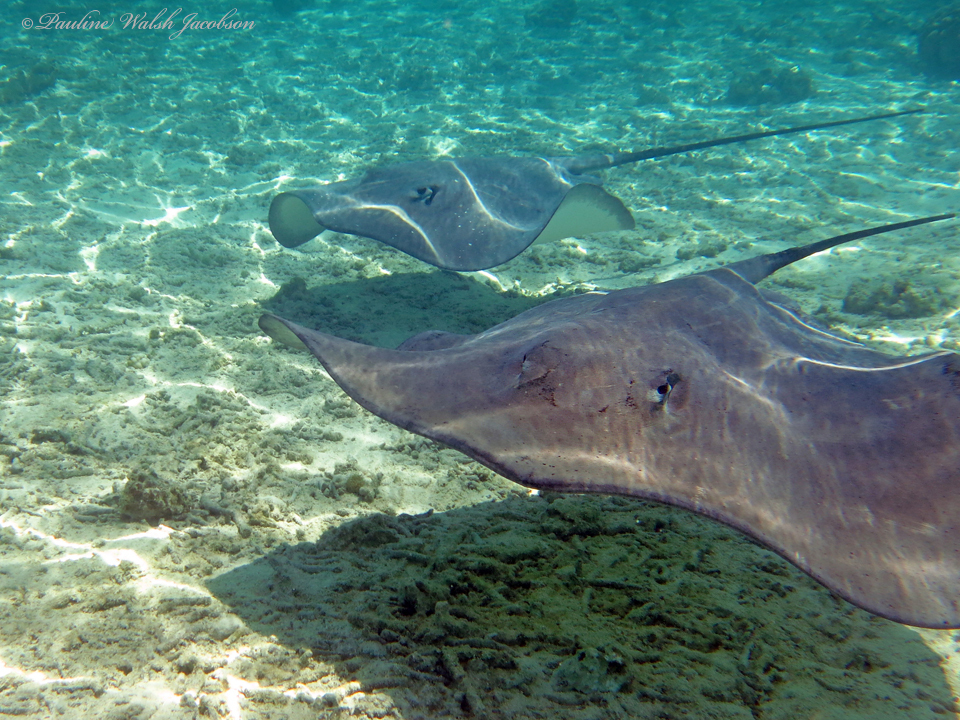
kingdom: Animalia
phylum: Chordata
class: Elasmobranchii
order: Myliobatiformes
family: Dasyatidae
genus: Pateobatis
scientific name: Pateobatis fai
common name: Pink whipray
